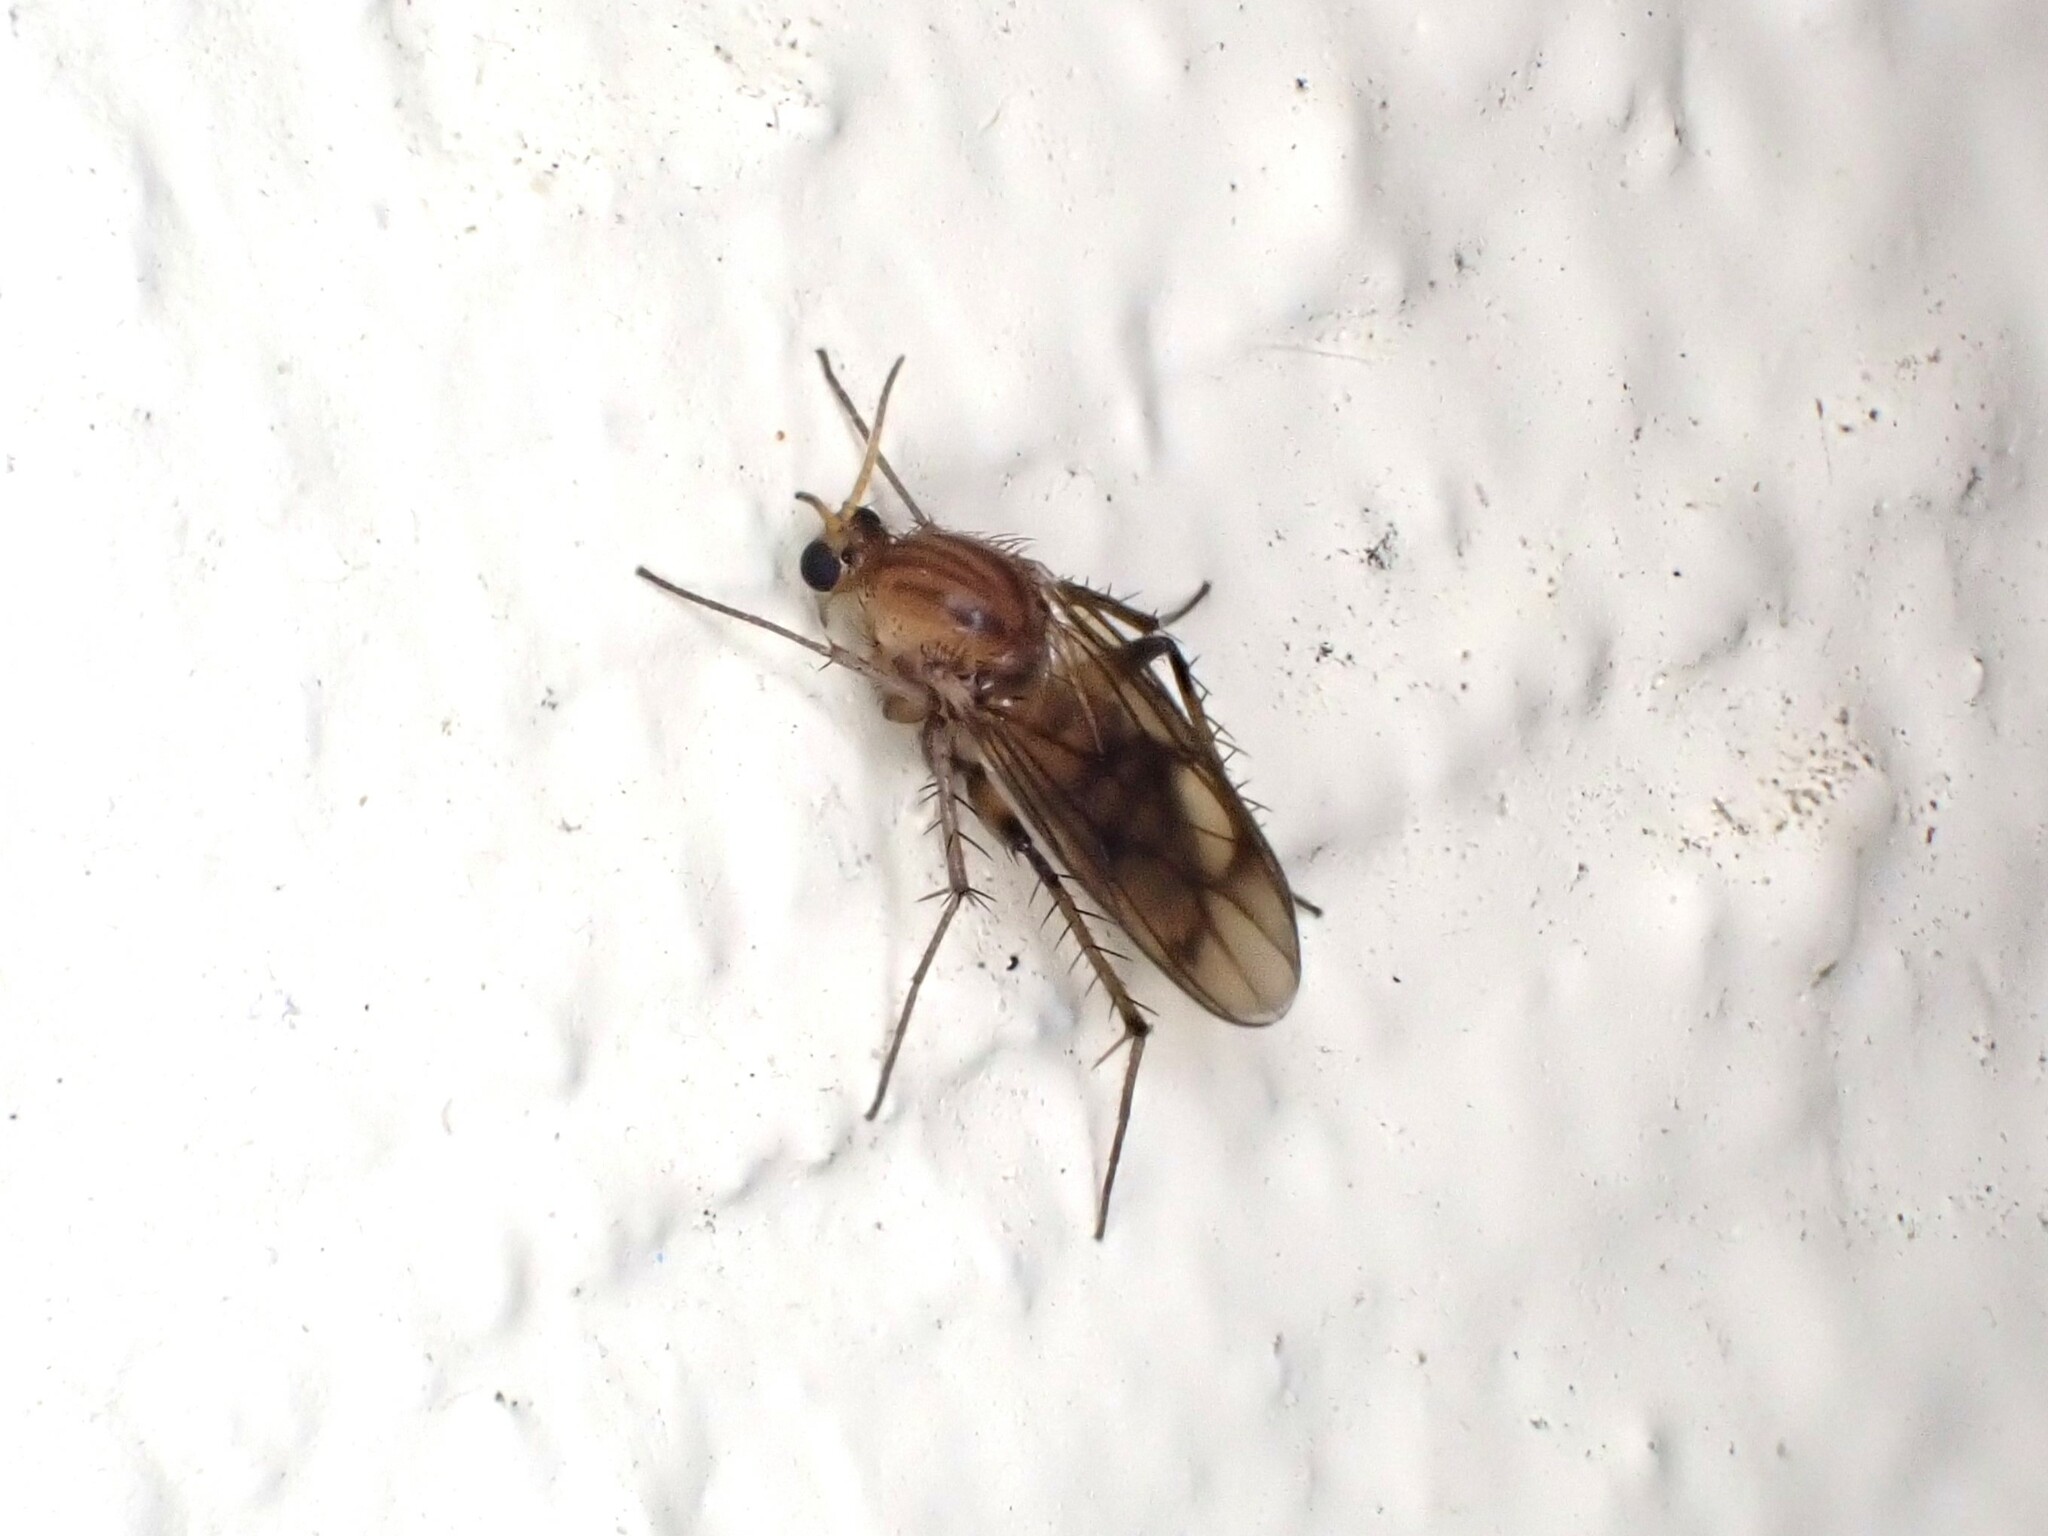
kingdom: Animalia
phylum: Arthropoda
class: Insecta
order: Diptera
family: Mycetophilidae
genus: Anomalomyia
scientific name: Anomalomyia guttata
